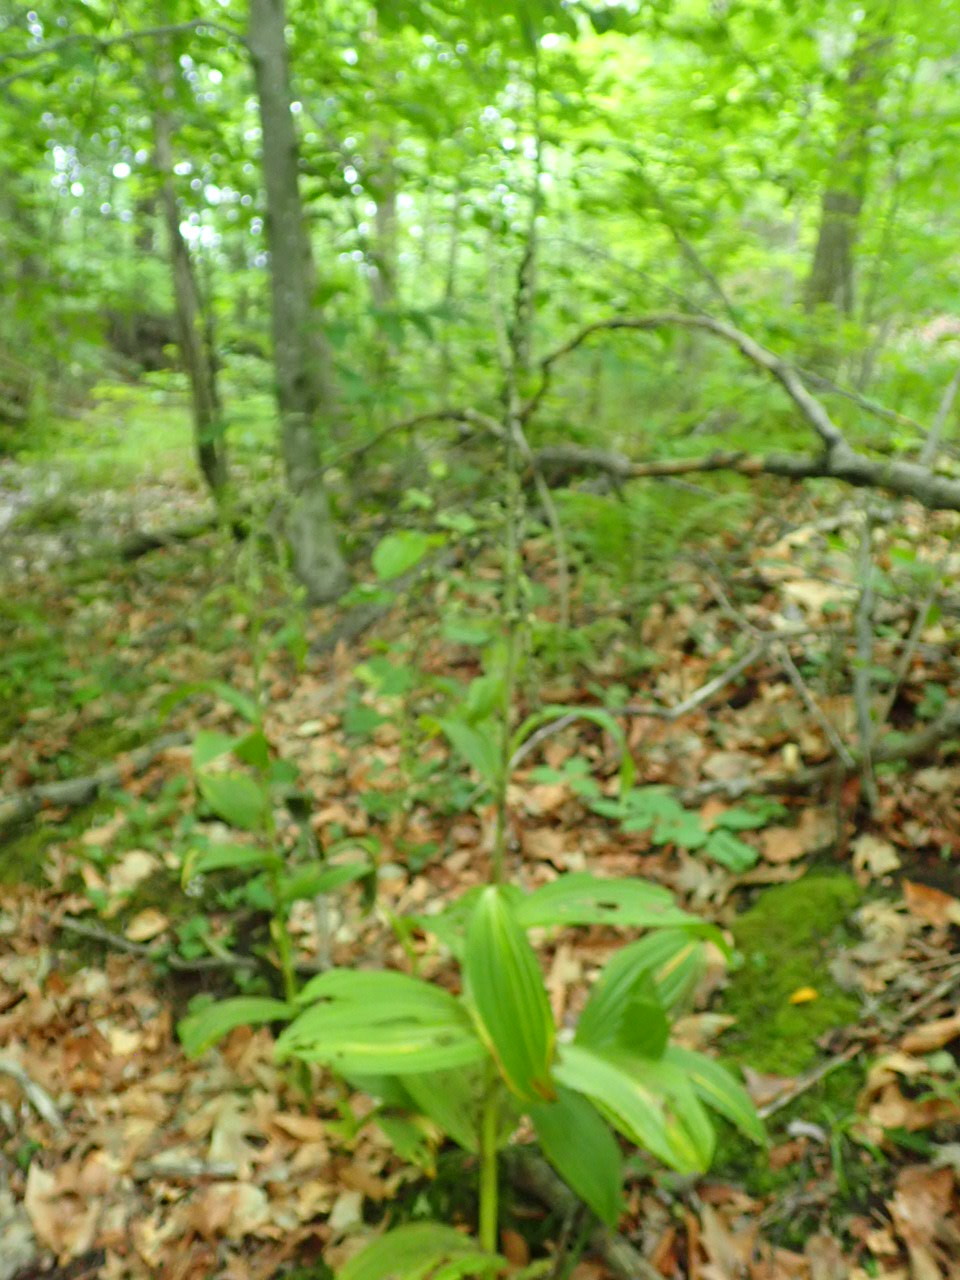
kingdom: Plantae
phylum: Tracheophyta
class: Liliopsida
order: Liliales
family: Melanthiaceae
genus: Veratrum
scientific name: Veratrum viride
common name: American false hellebore
